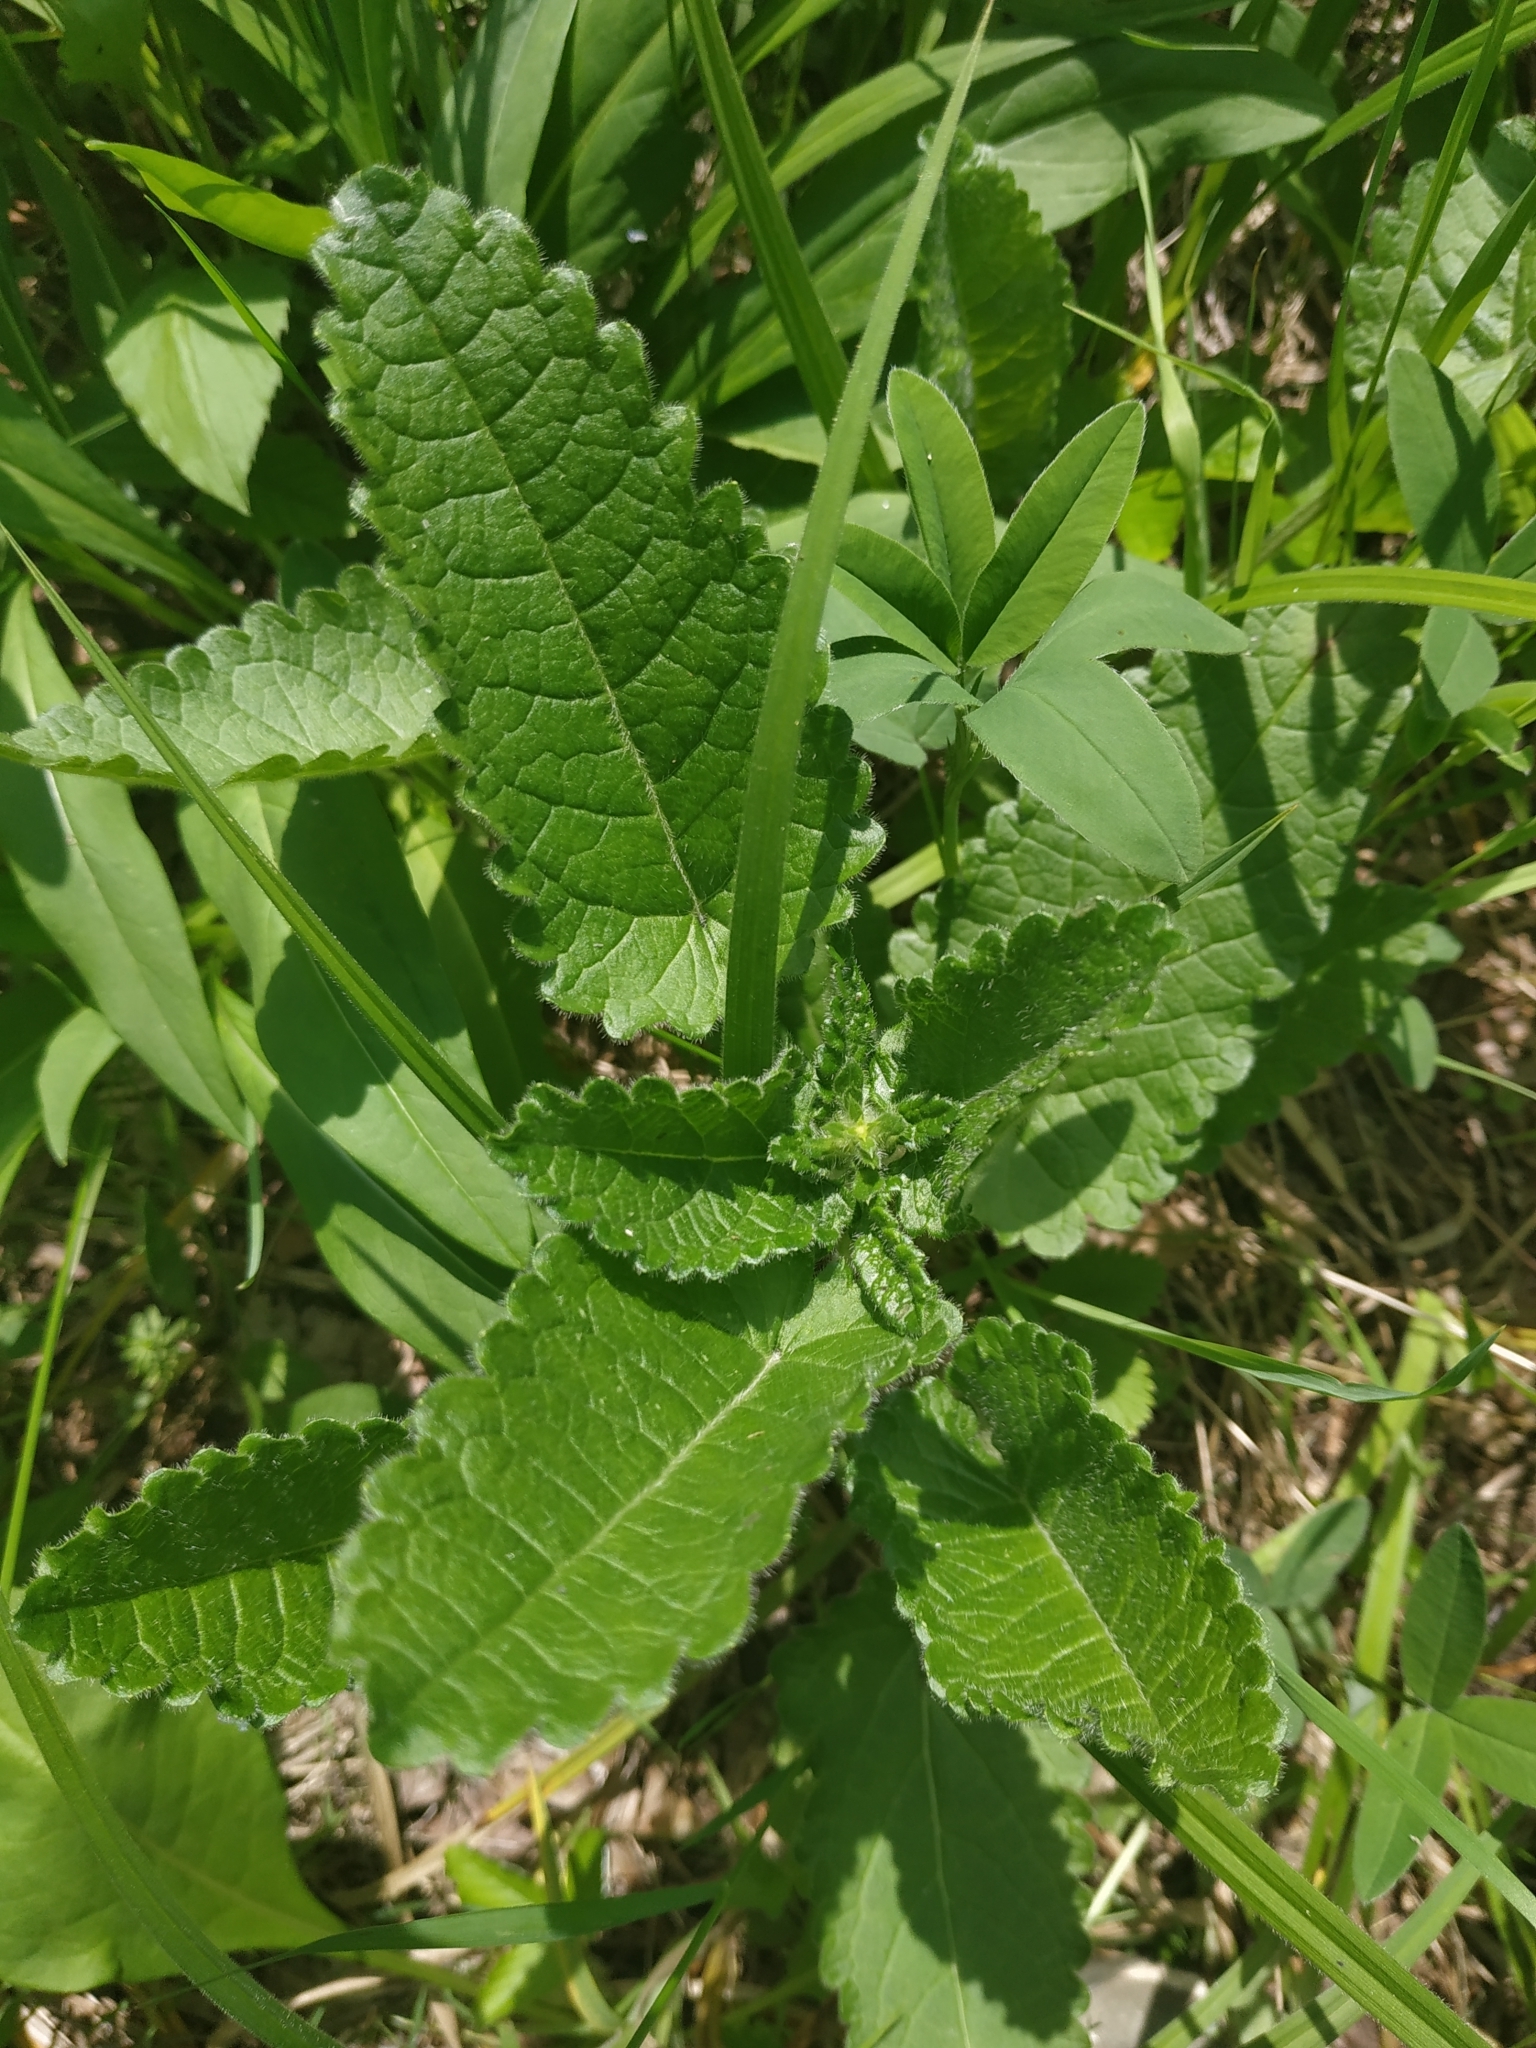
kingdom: Plantae
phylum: Tracheophyta
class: Magnoliopsida
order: Lamiales
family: Lamiaceae
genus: Betonica
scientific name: Betonica officinalis
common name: Bishop's-wort
